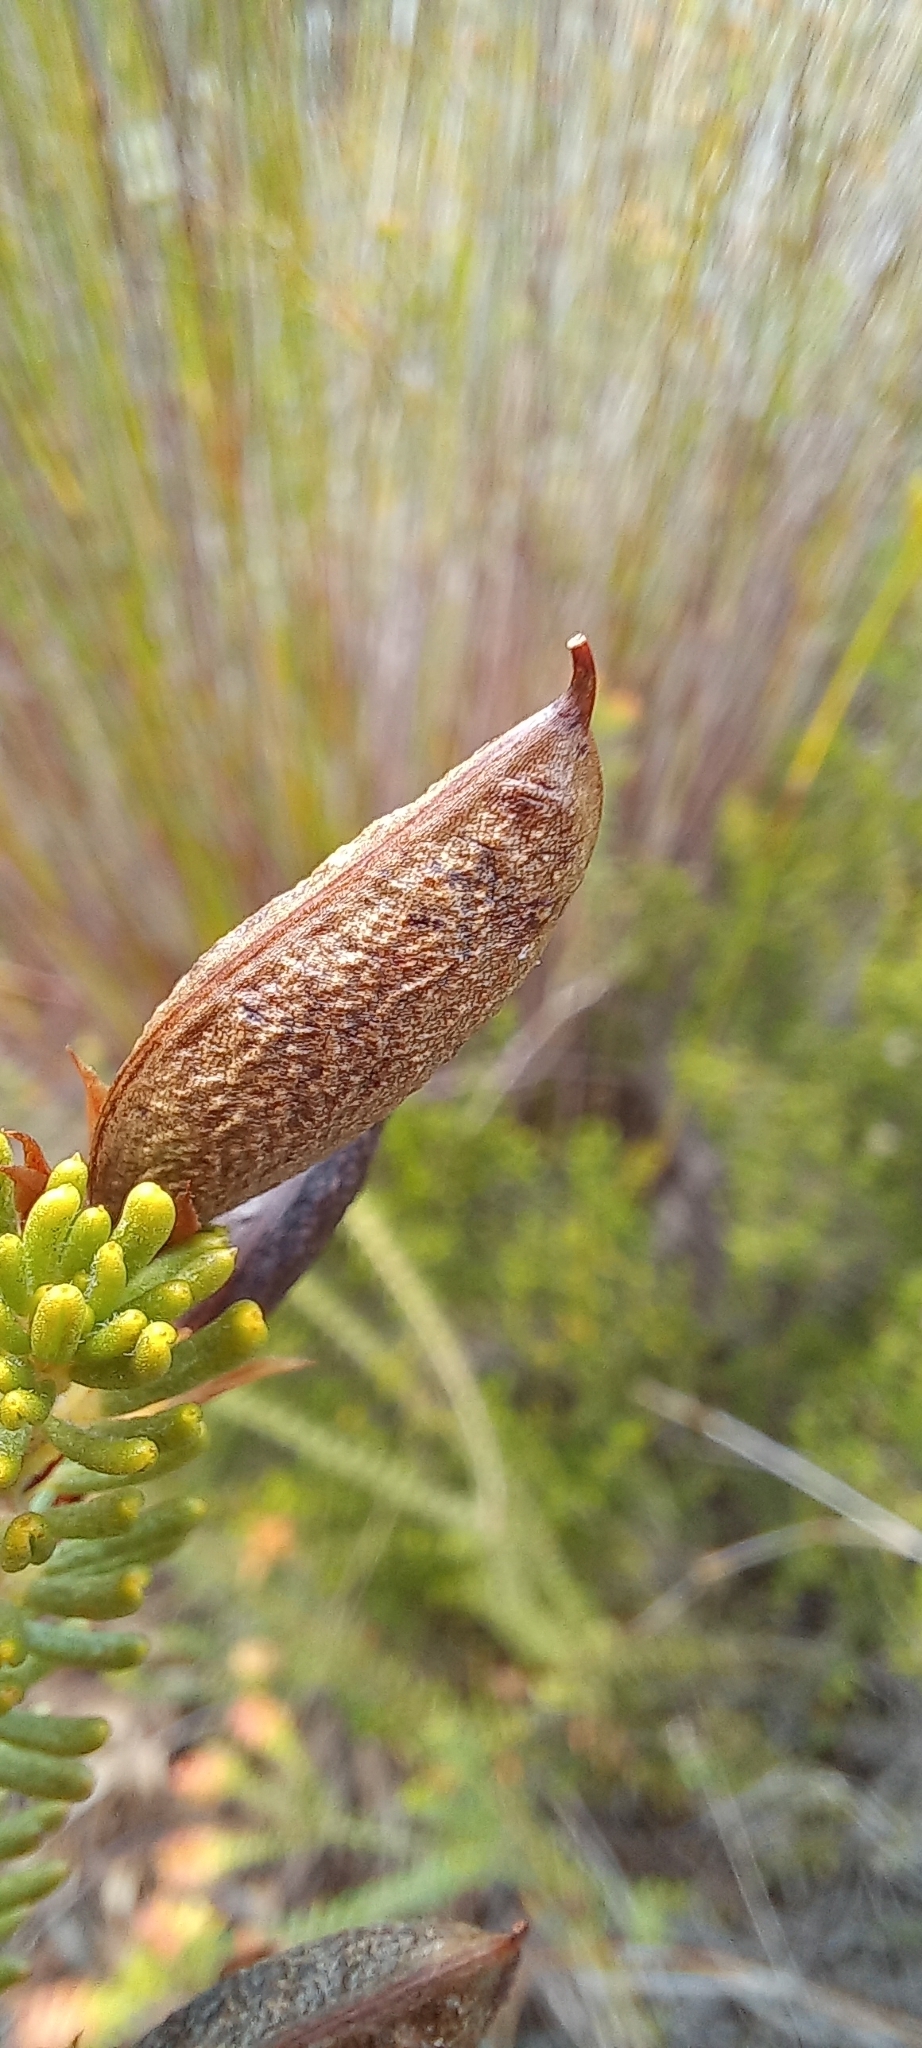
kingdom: Plantae
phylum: Tracheophyta
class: Magnoliopsida
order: Fabales
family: Fabaceae
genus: Cyclopia
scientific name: Cyclopia genistoides
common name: Honeybush tea
